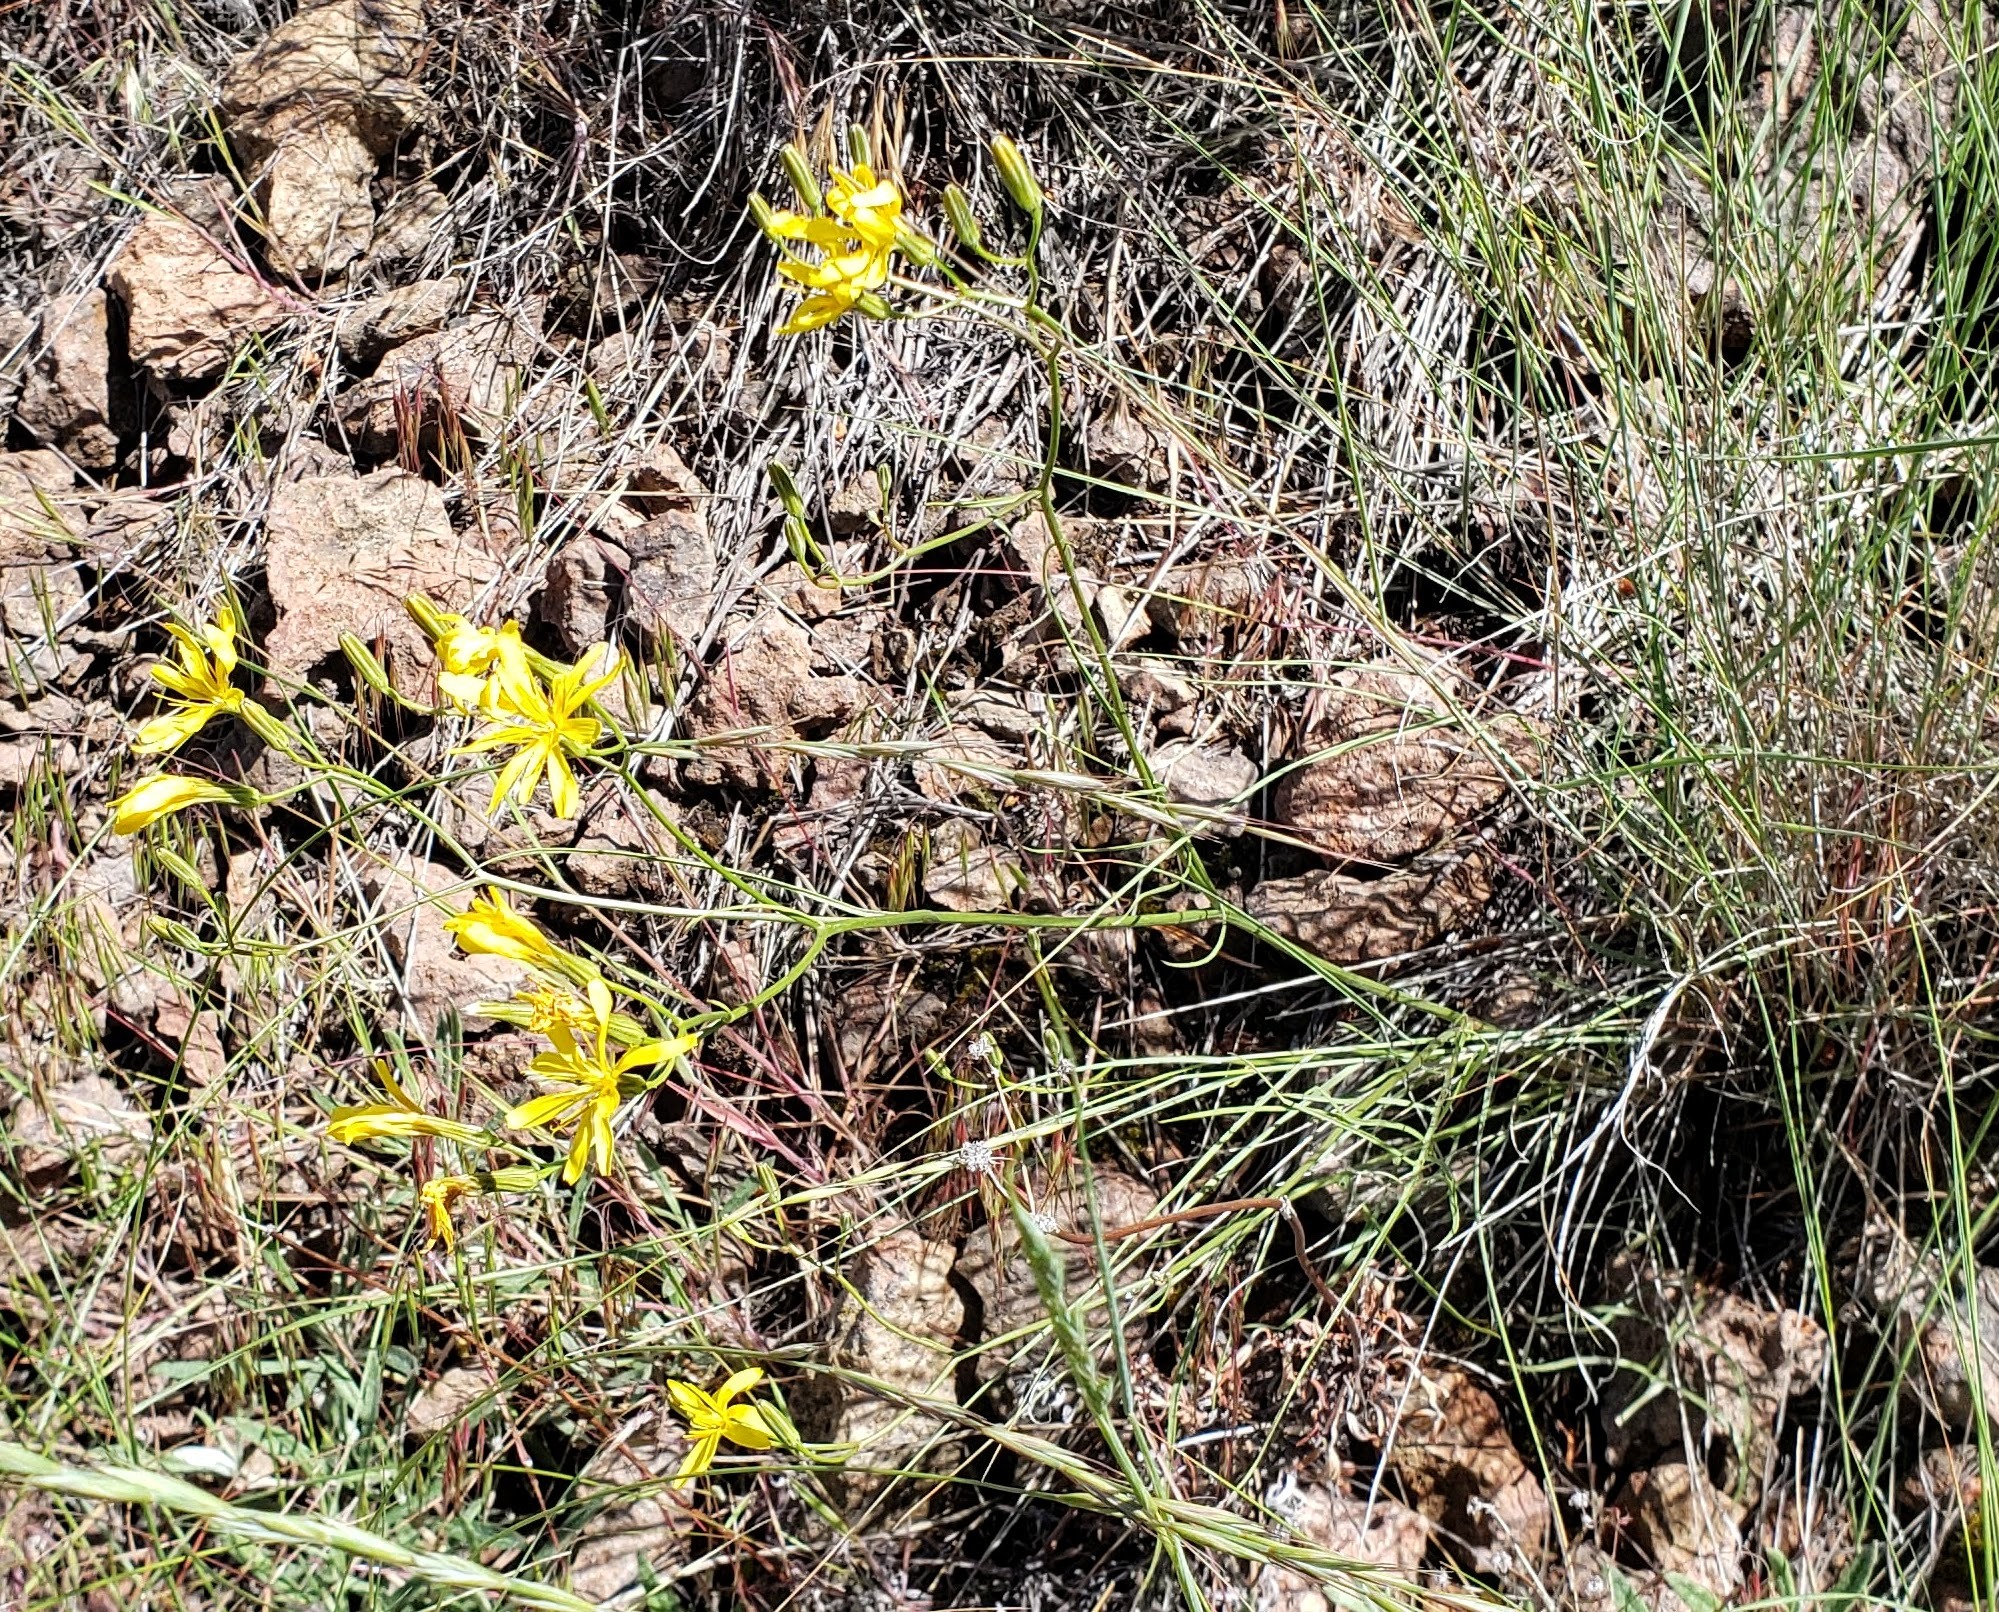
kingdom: Plantae
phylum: Tracheophyta
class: Magnoliopsida
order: Asterales
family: Asteraceae
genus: Crepis
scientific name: Crepis atribarba
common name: Dark hawk's-beard
